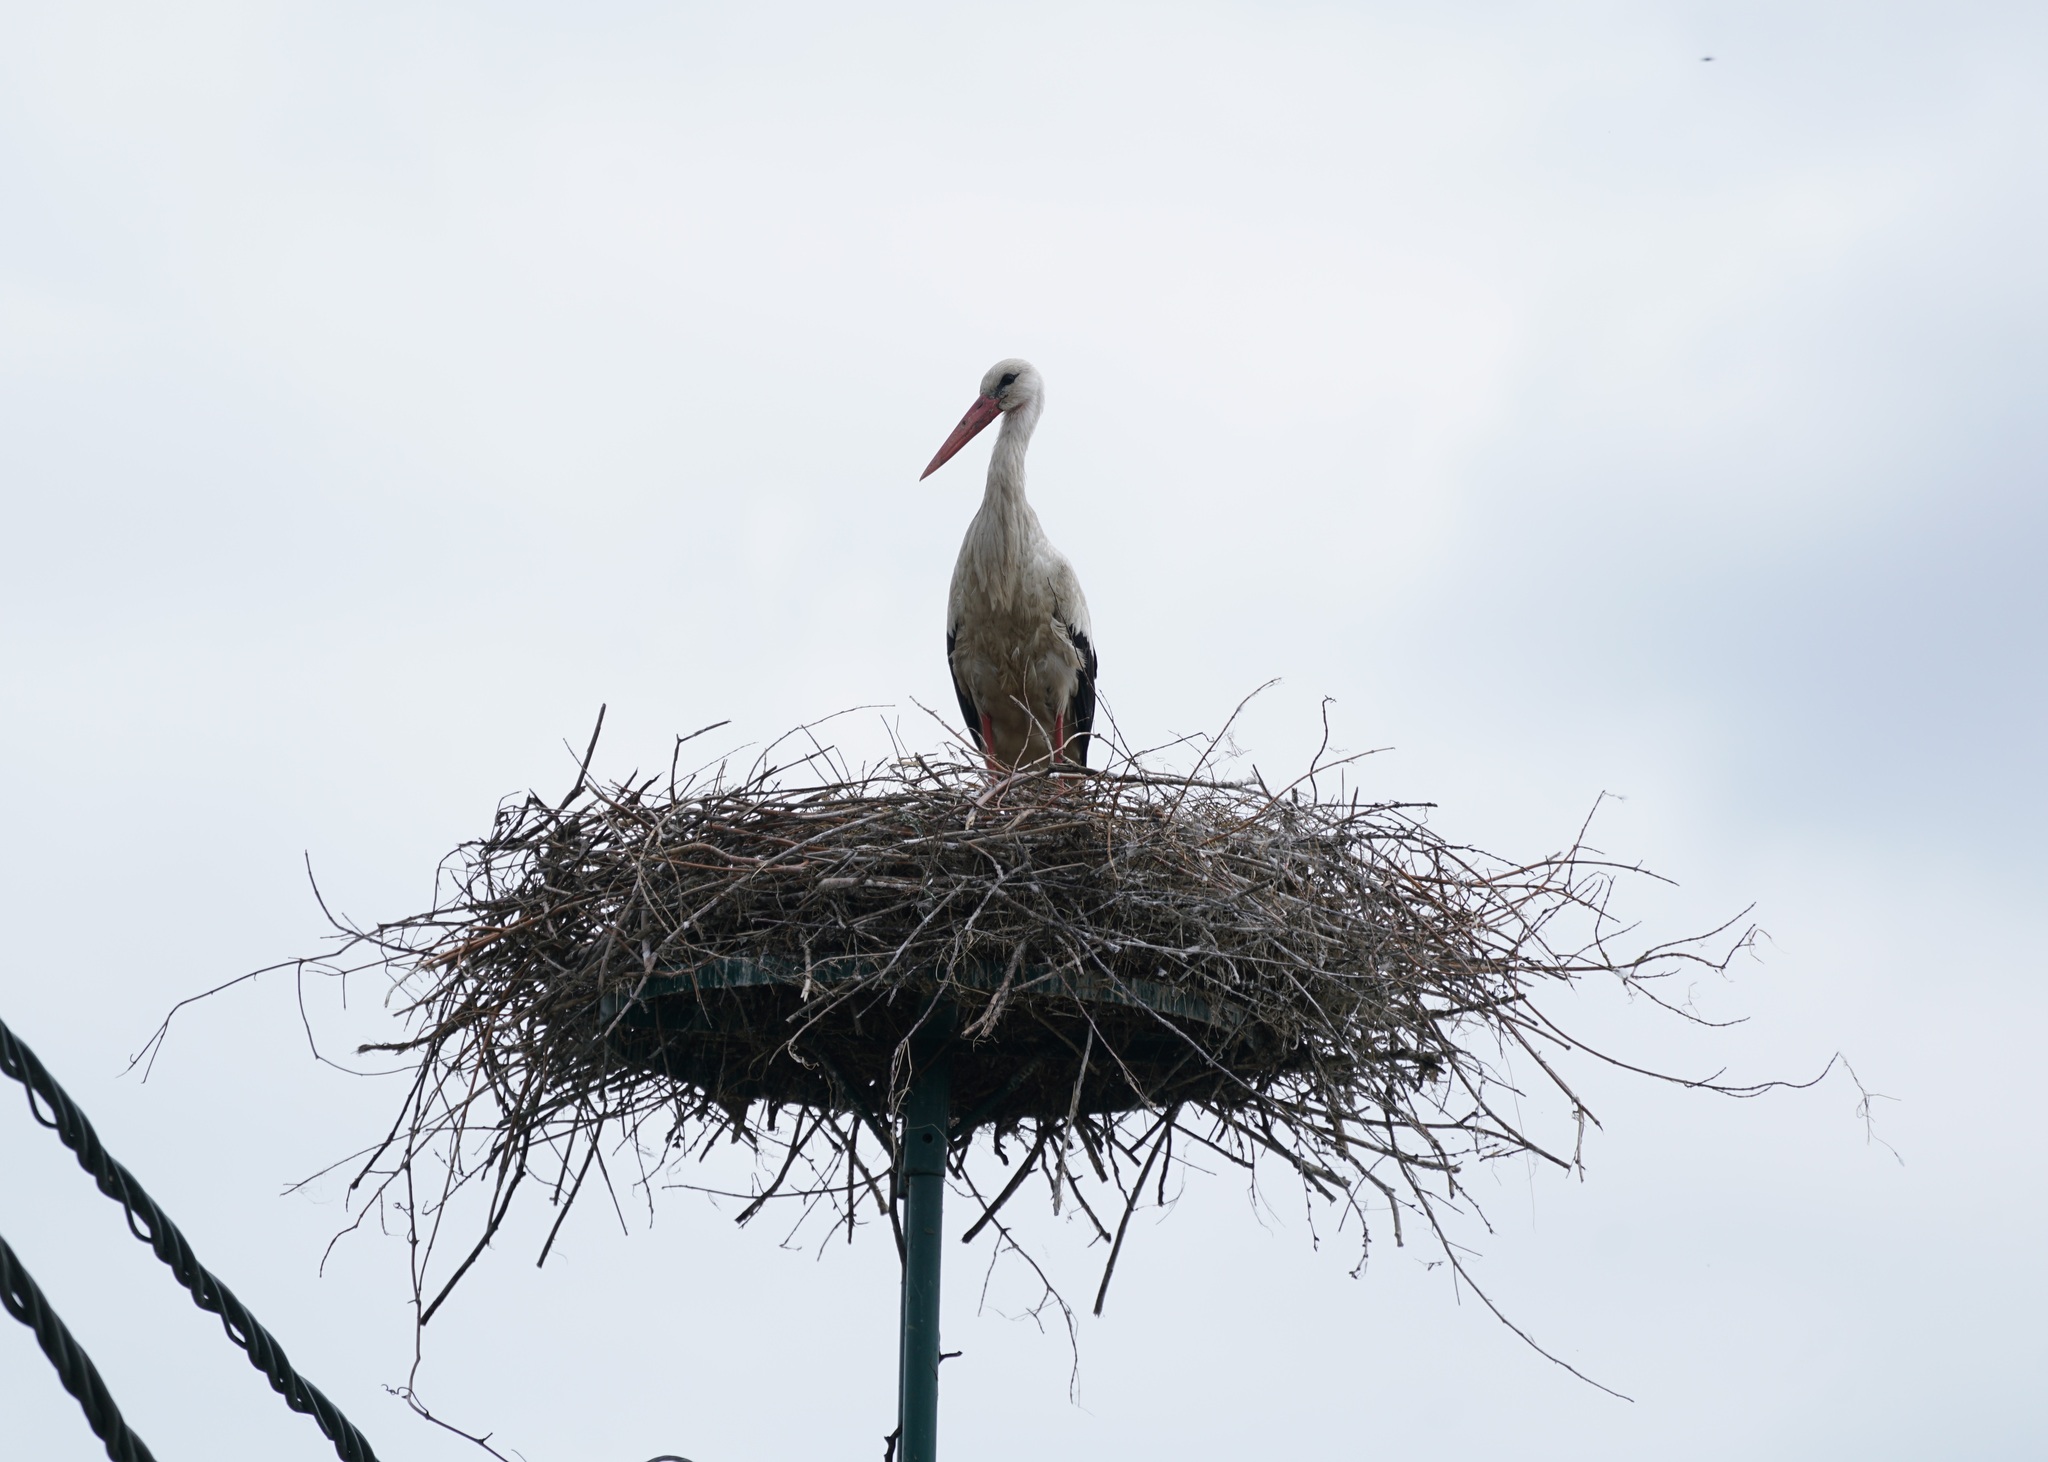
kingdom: Animalia
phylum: Chordata
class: Aves
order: Ciconiiformes
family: Ciconiidae
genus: Ciconia
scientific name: Ciconia ciconia
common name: White stork
